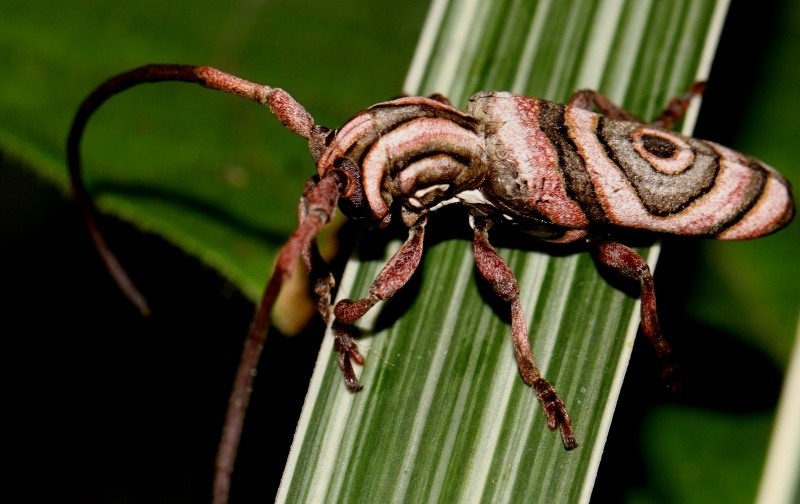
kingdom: Animalia
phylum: Arthropoda
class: Insecta
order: Coleoptera
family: Cerambycidae
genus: Hypsideroides
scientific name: Hypsideroides junodi
